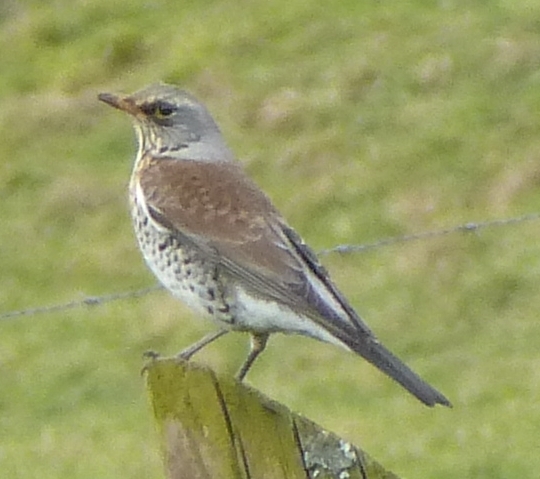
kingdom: Animalia
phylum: Chordata
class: Aves
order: Passeriformes
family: Turdidae
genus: Turdus
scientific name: Turdus pilaris
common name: Fieldfare
